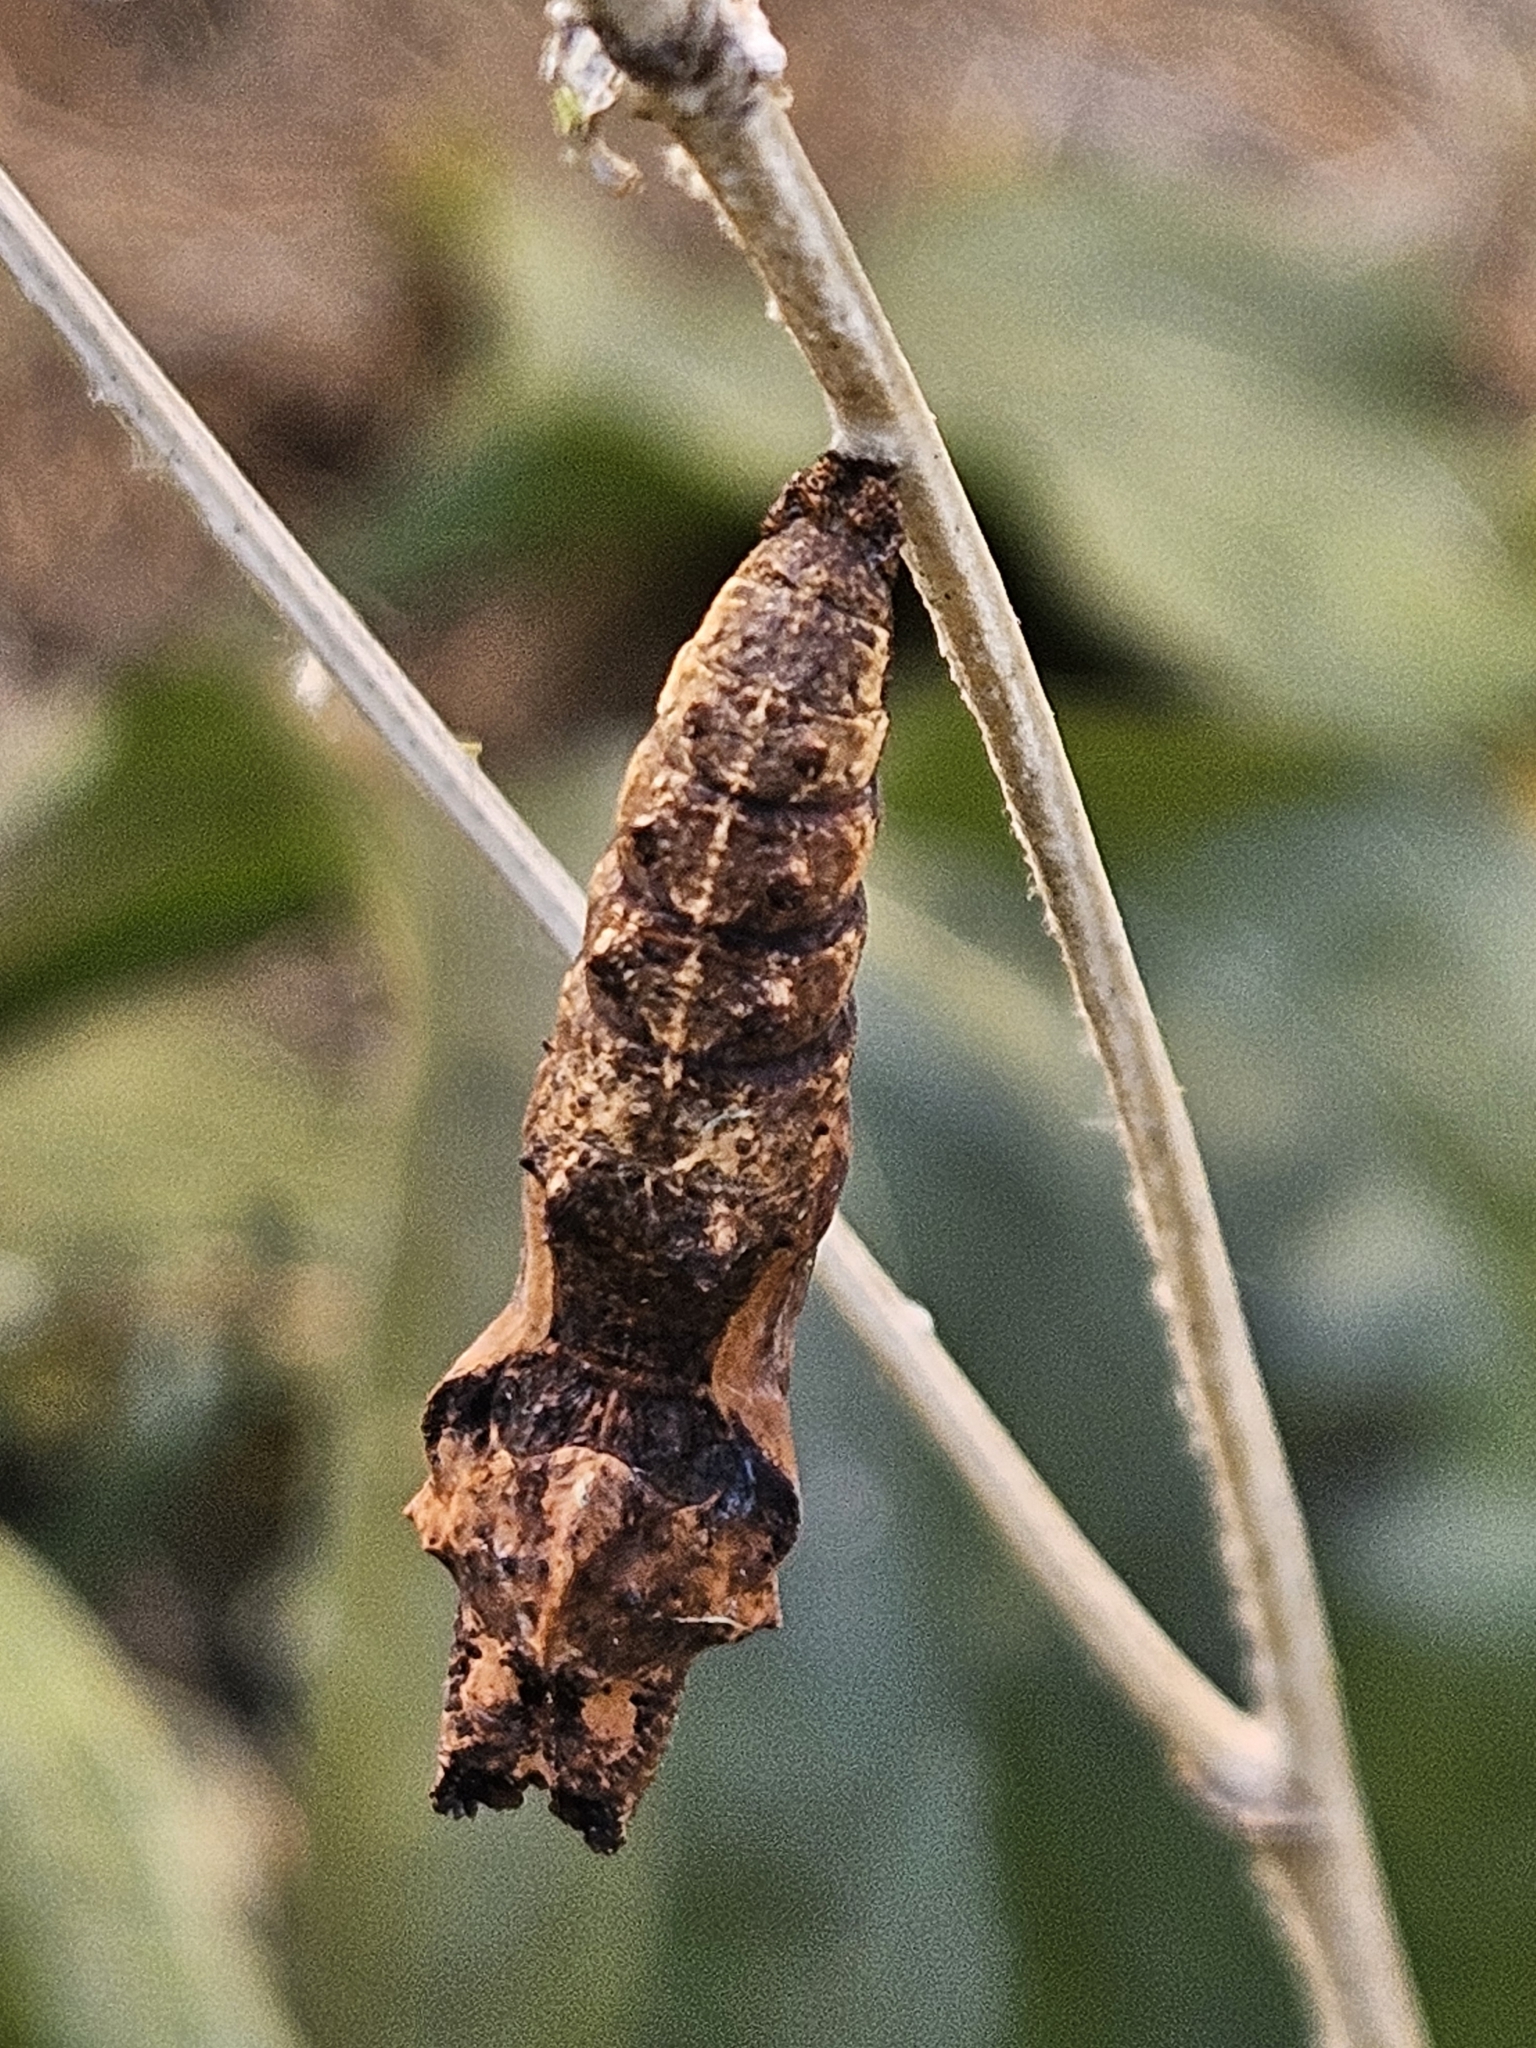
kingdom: Animalia
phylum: Arthropoda
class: Insecta
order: Lepidoptera
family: Nymphalidae
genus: Dione
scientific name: Dione vanillae
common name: Gulf fritillary
